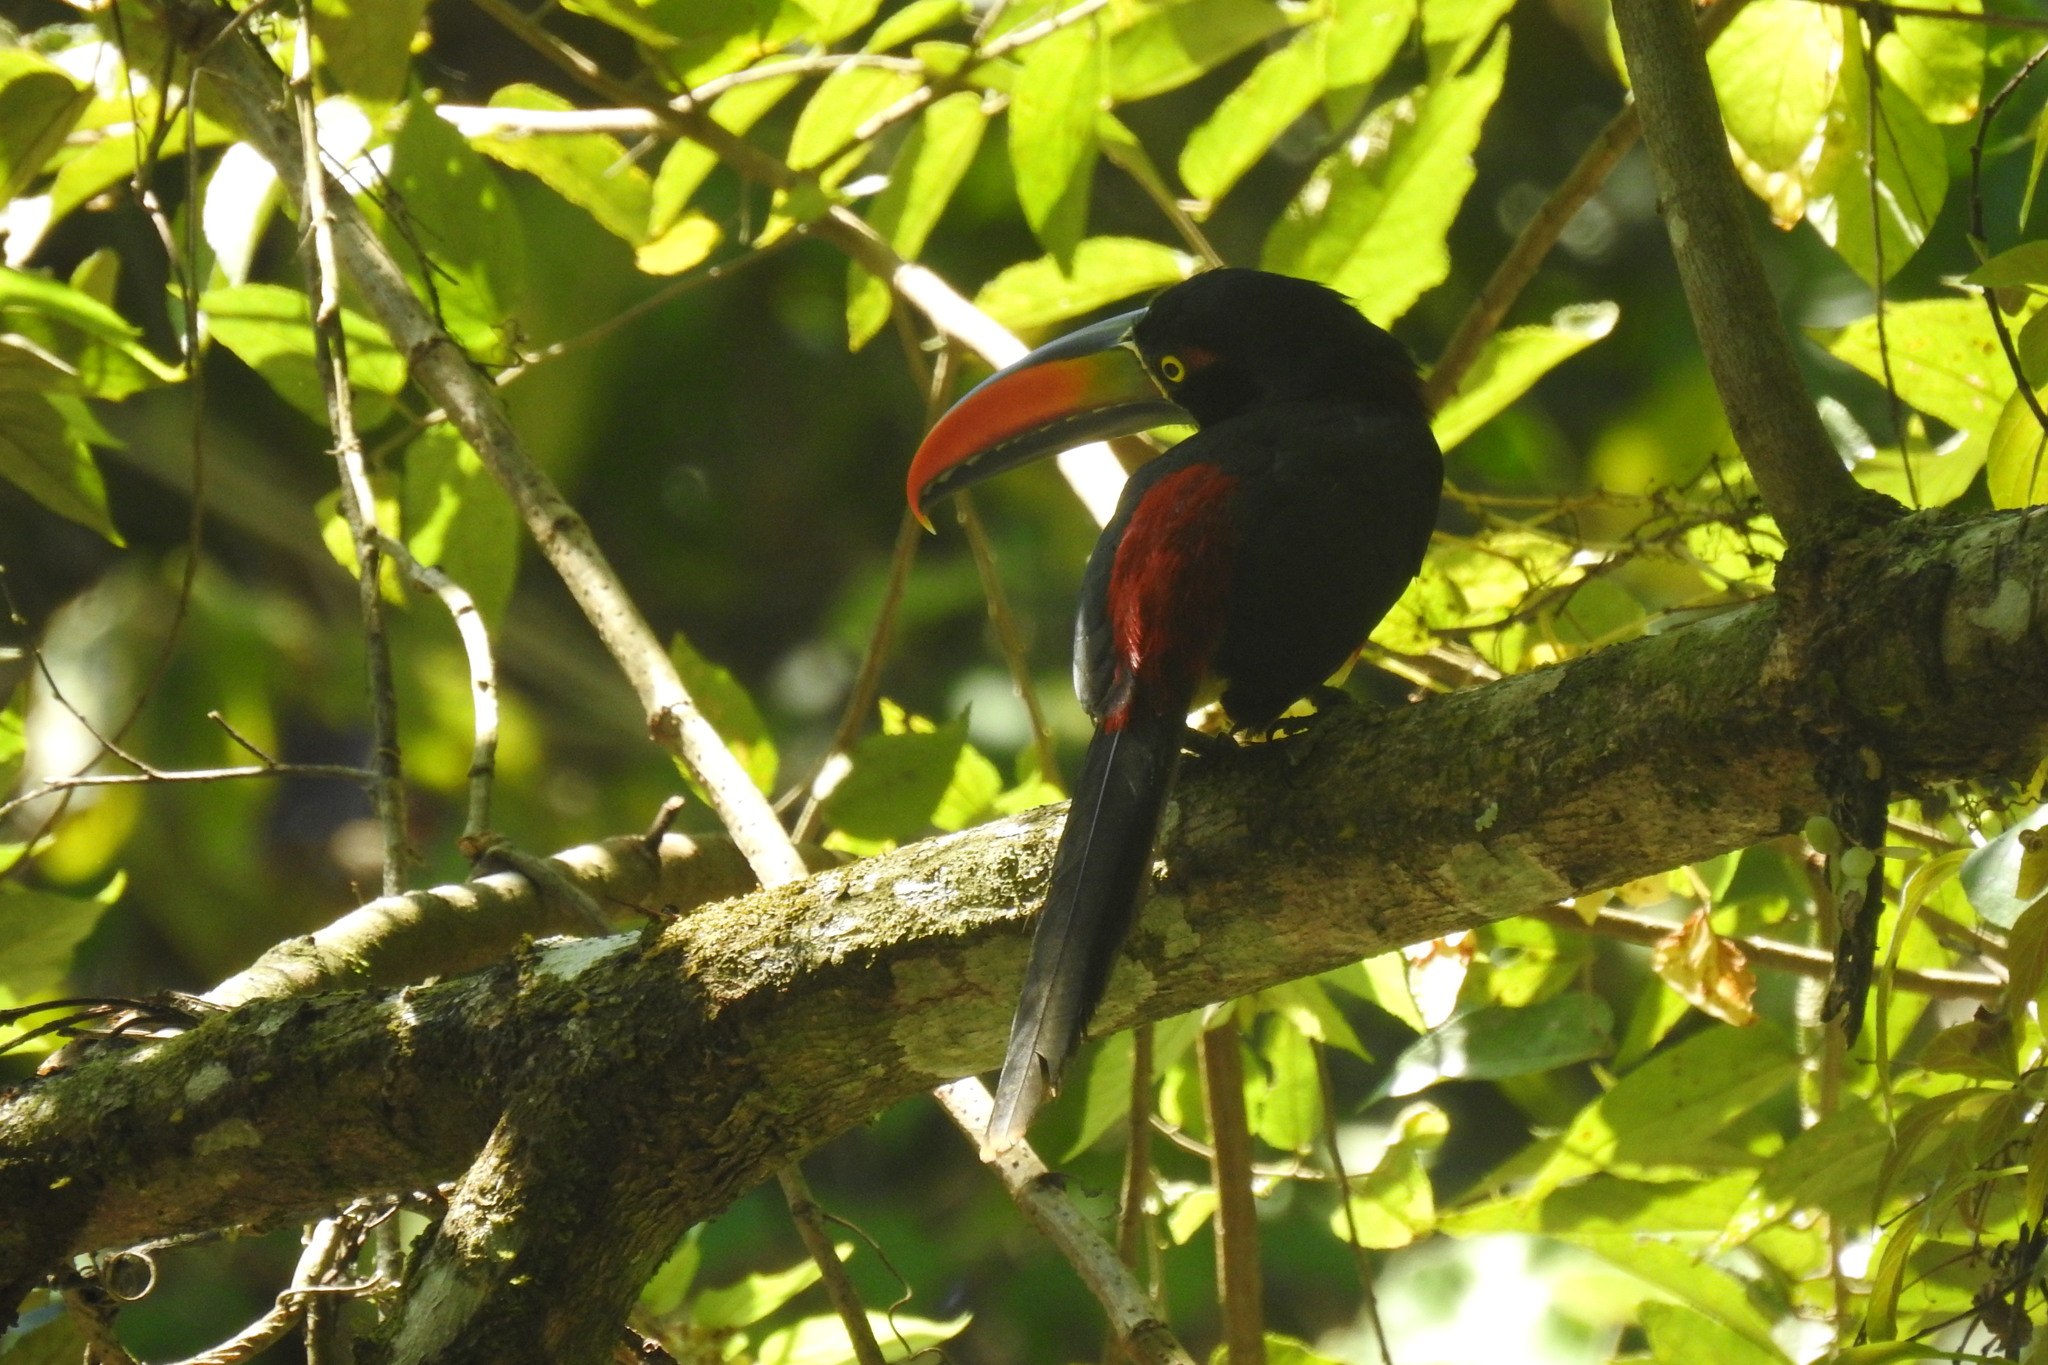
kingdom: Animalia
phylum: Chordata
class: Aves
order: Piciformes
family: Ramphastidae
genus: Pteroglossus
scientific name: Pteroglossus frantzii
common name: Fiery-billed aracari
